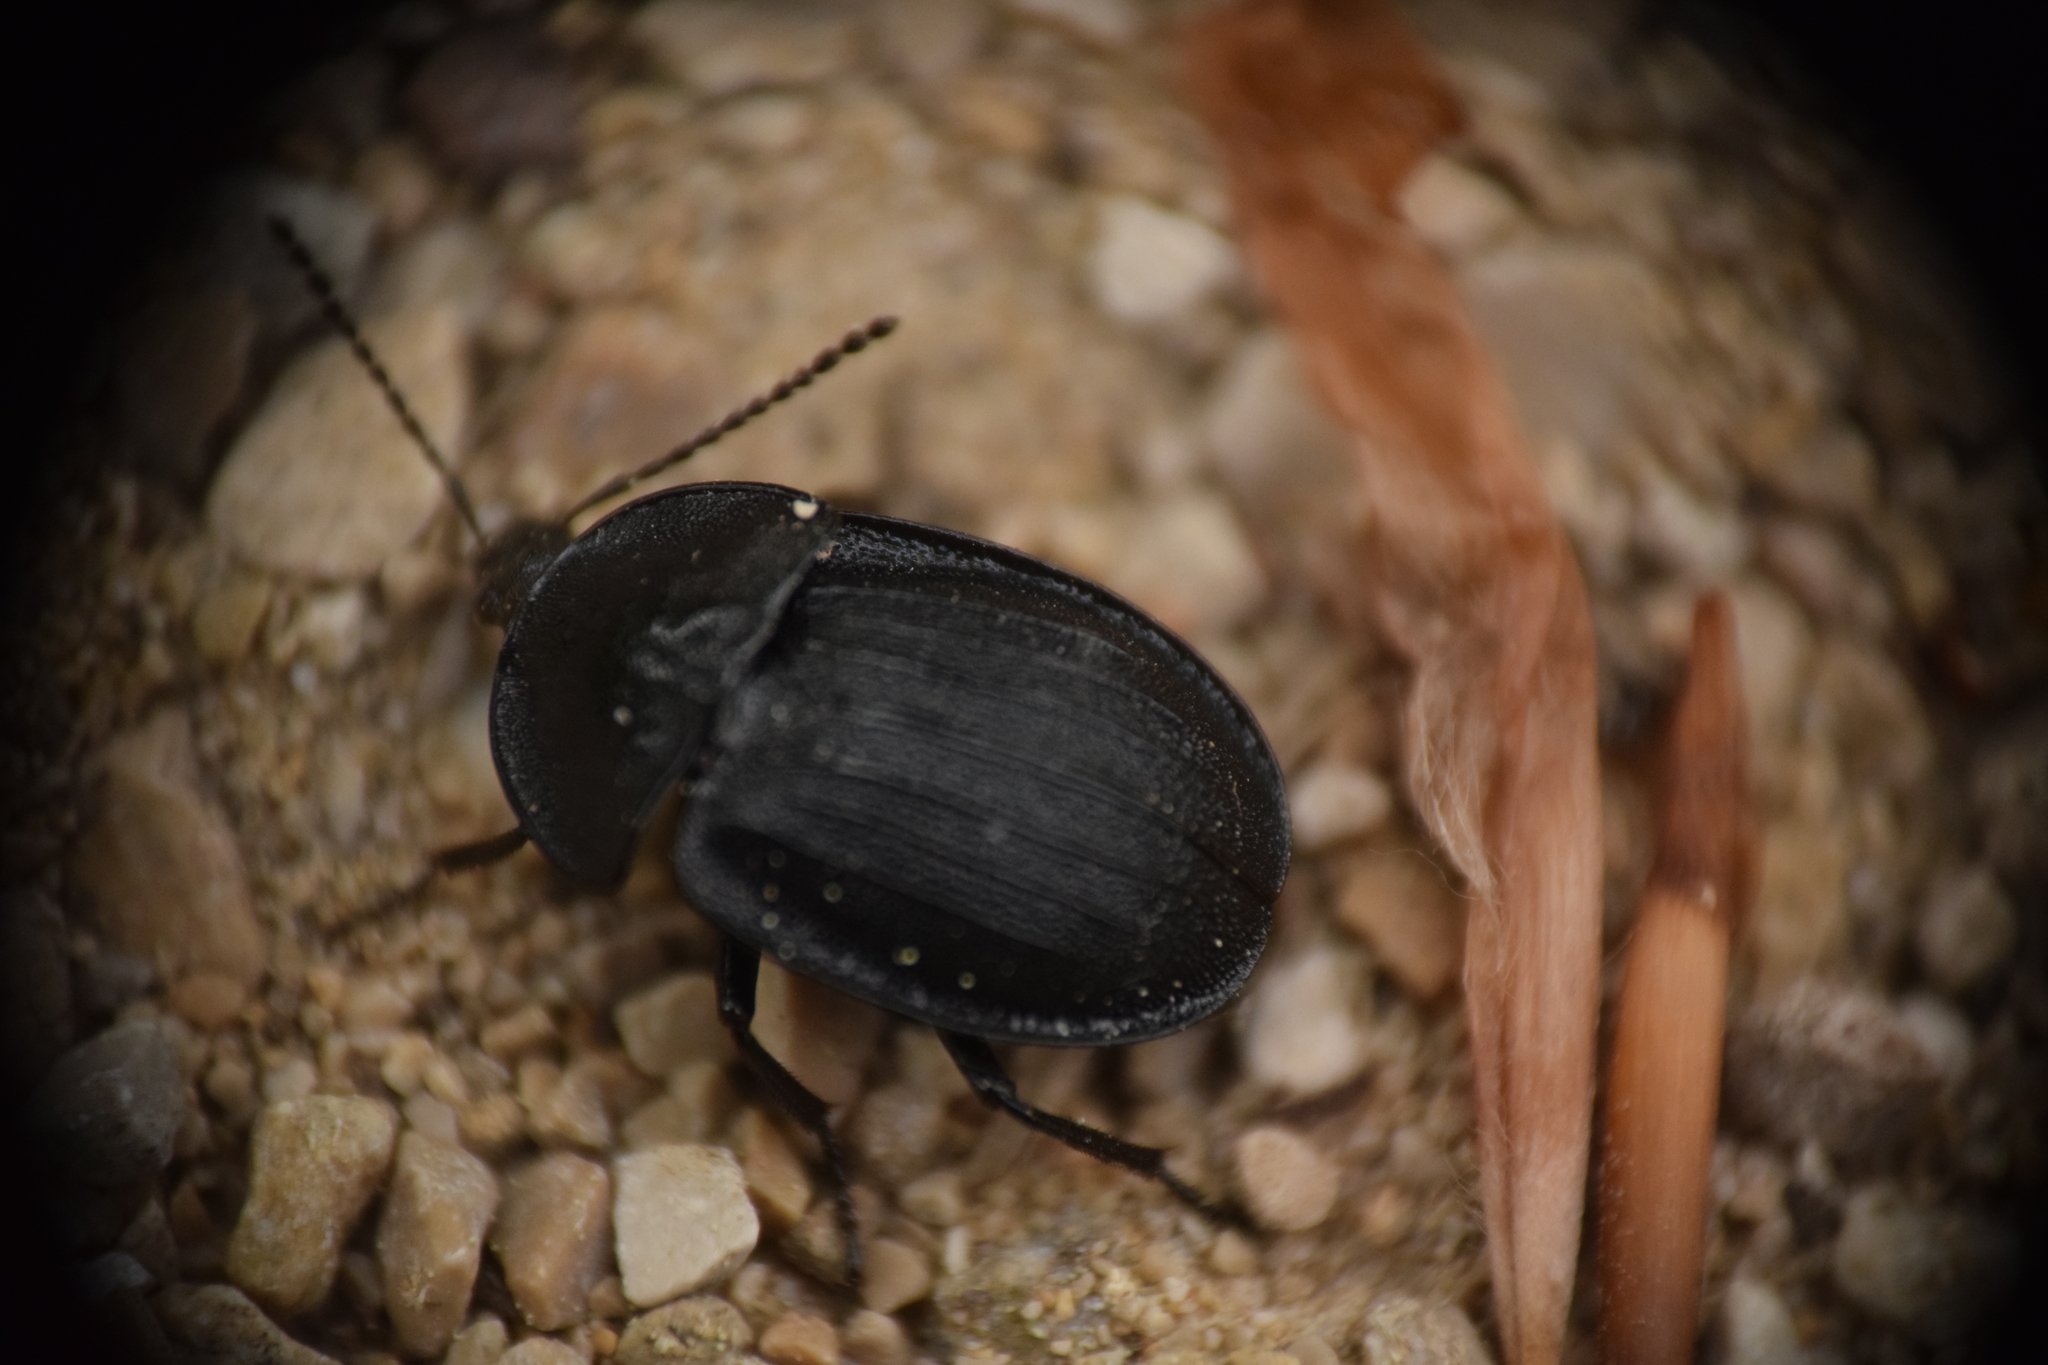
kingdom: Animalia
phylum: Arthropoda
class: Insecta
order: Coleoptera
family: Staphylinidae
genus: Silpha
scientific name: Silpha atrata
